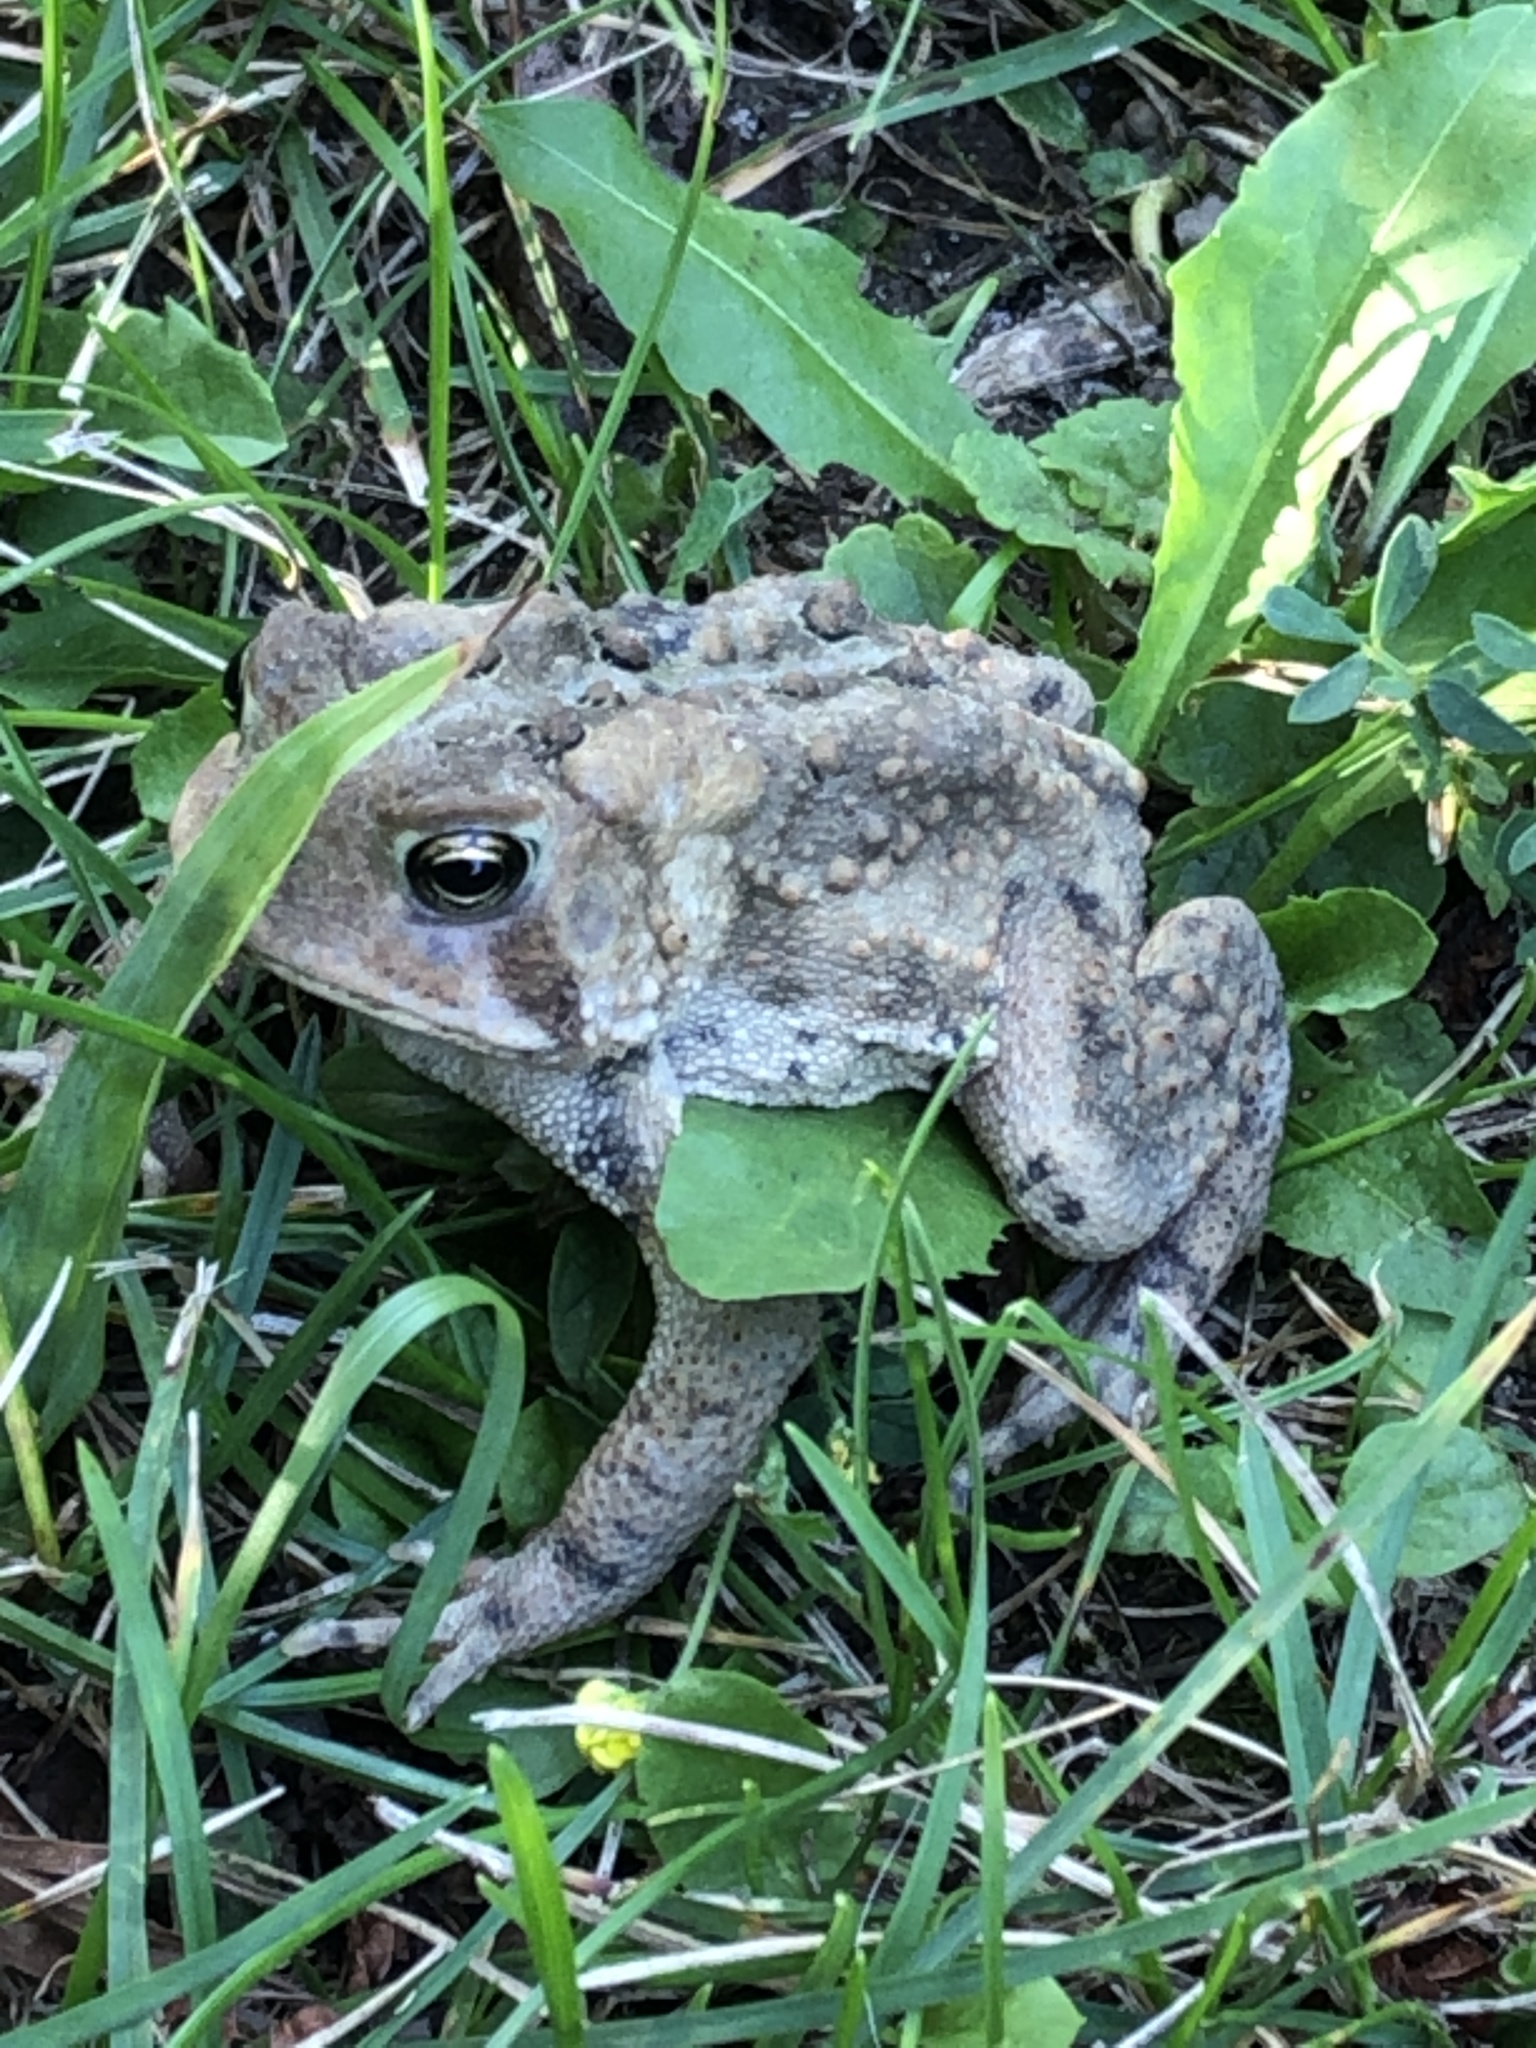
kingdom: Animalia
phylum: Chordata
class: Amphibia
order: Anura
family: Bufonidae
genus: Anaxyrus
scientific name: Anaxyrus americanus
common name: American toad
